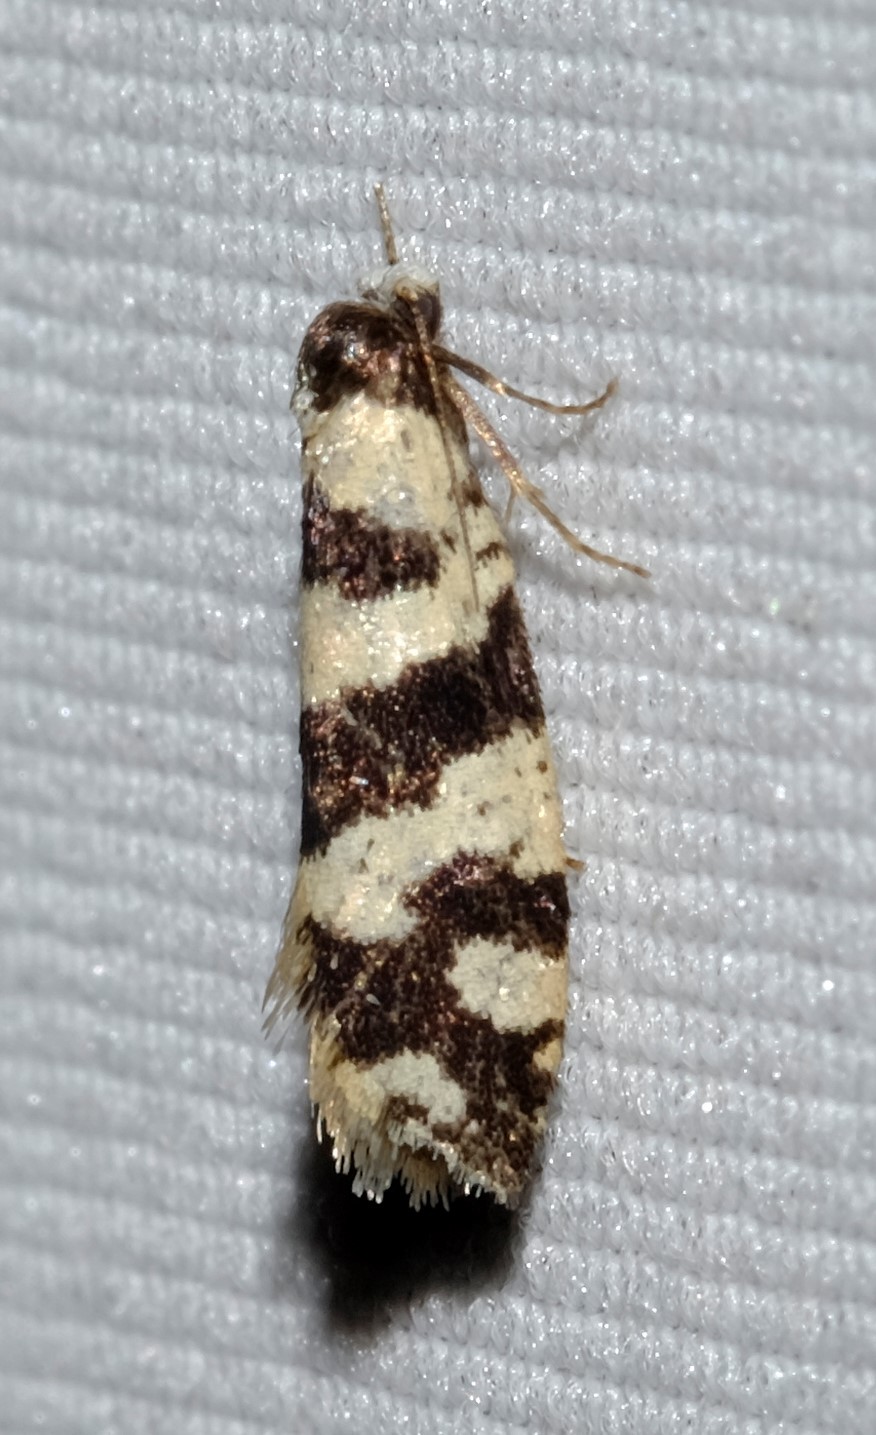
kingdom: Animalia
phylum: Arthropoda
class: Insecta
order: Lepidoptera
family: Psychidae
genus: Lepidoscia
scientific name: Lepidoscia characota
